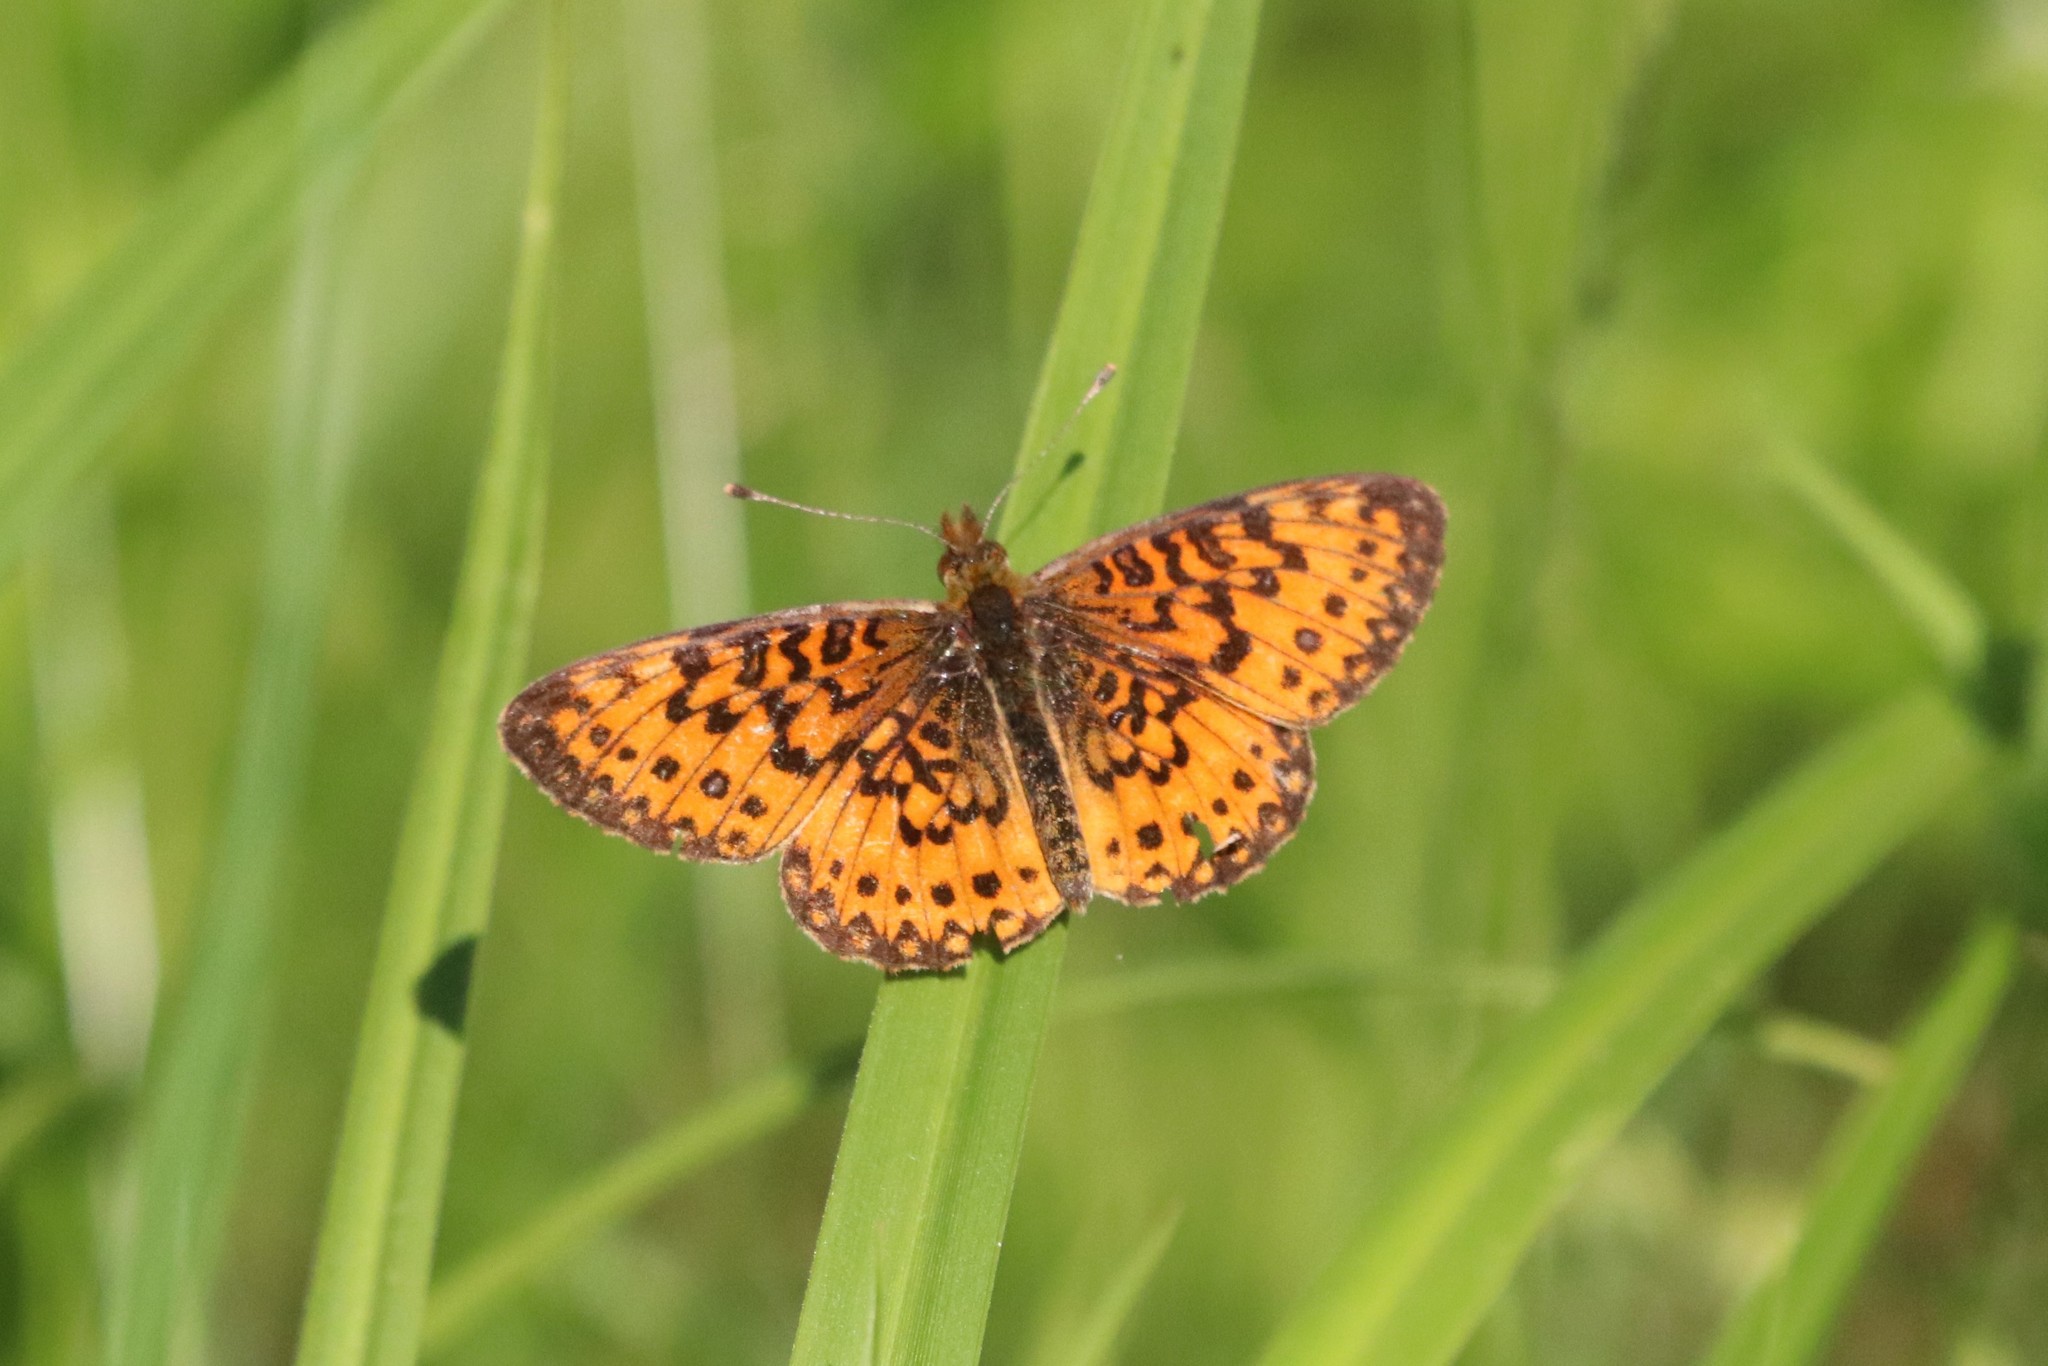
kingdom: Animalia
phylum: Arthropoda
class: Insecta
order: Lepidoptera
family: Nymphalidae
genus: Boloria
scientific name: Boloria
